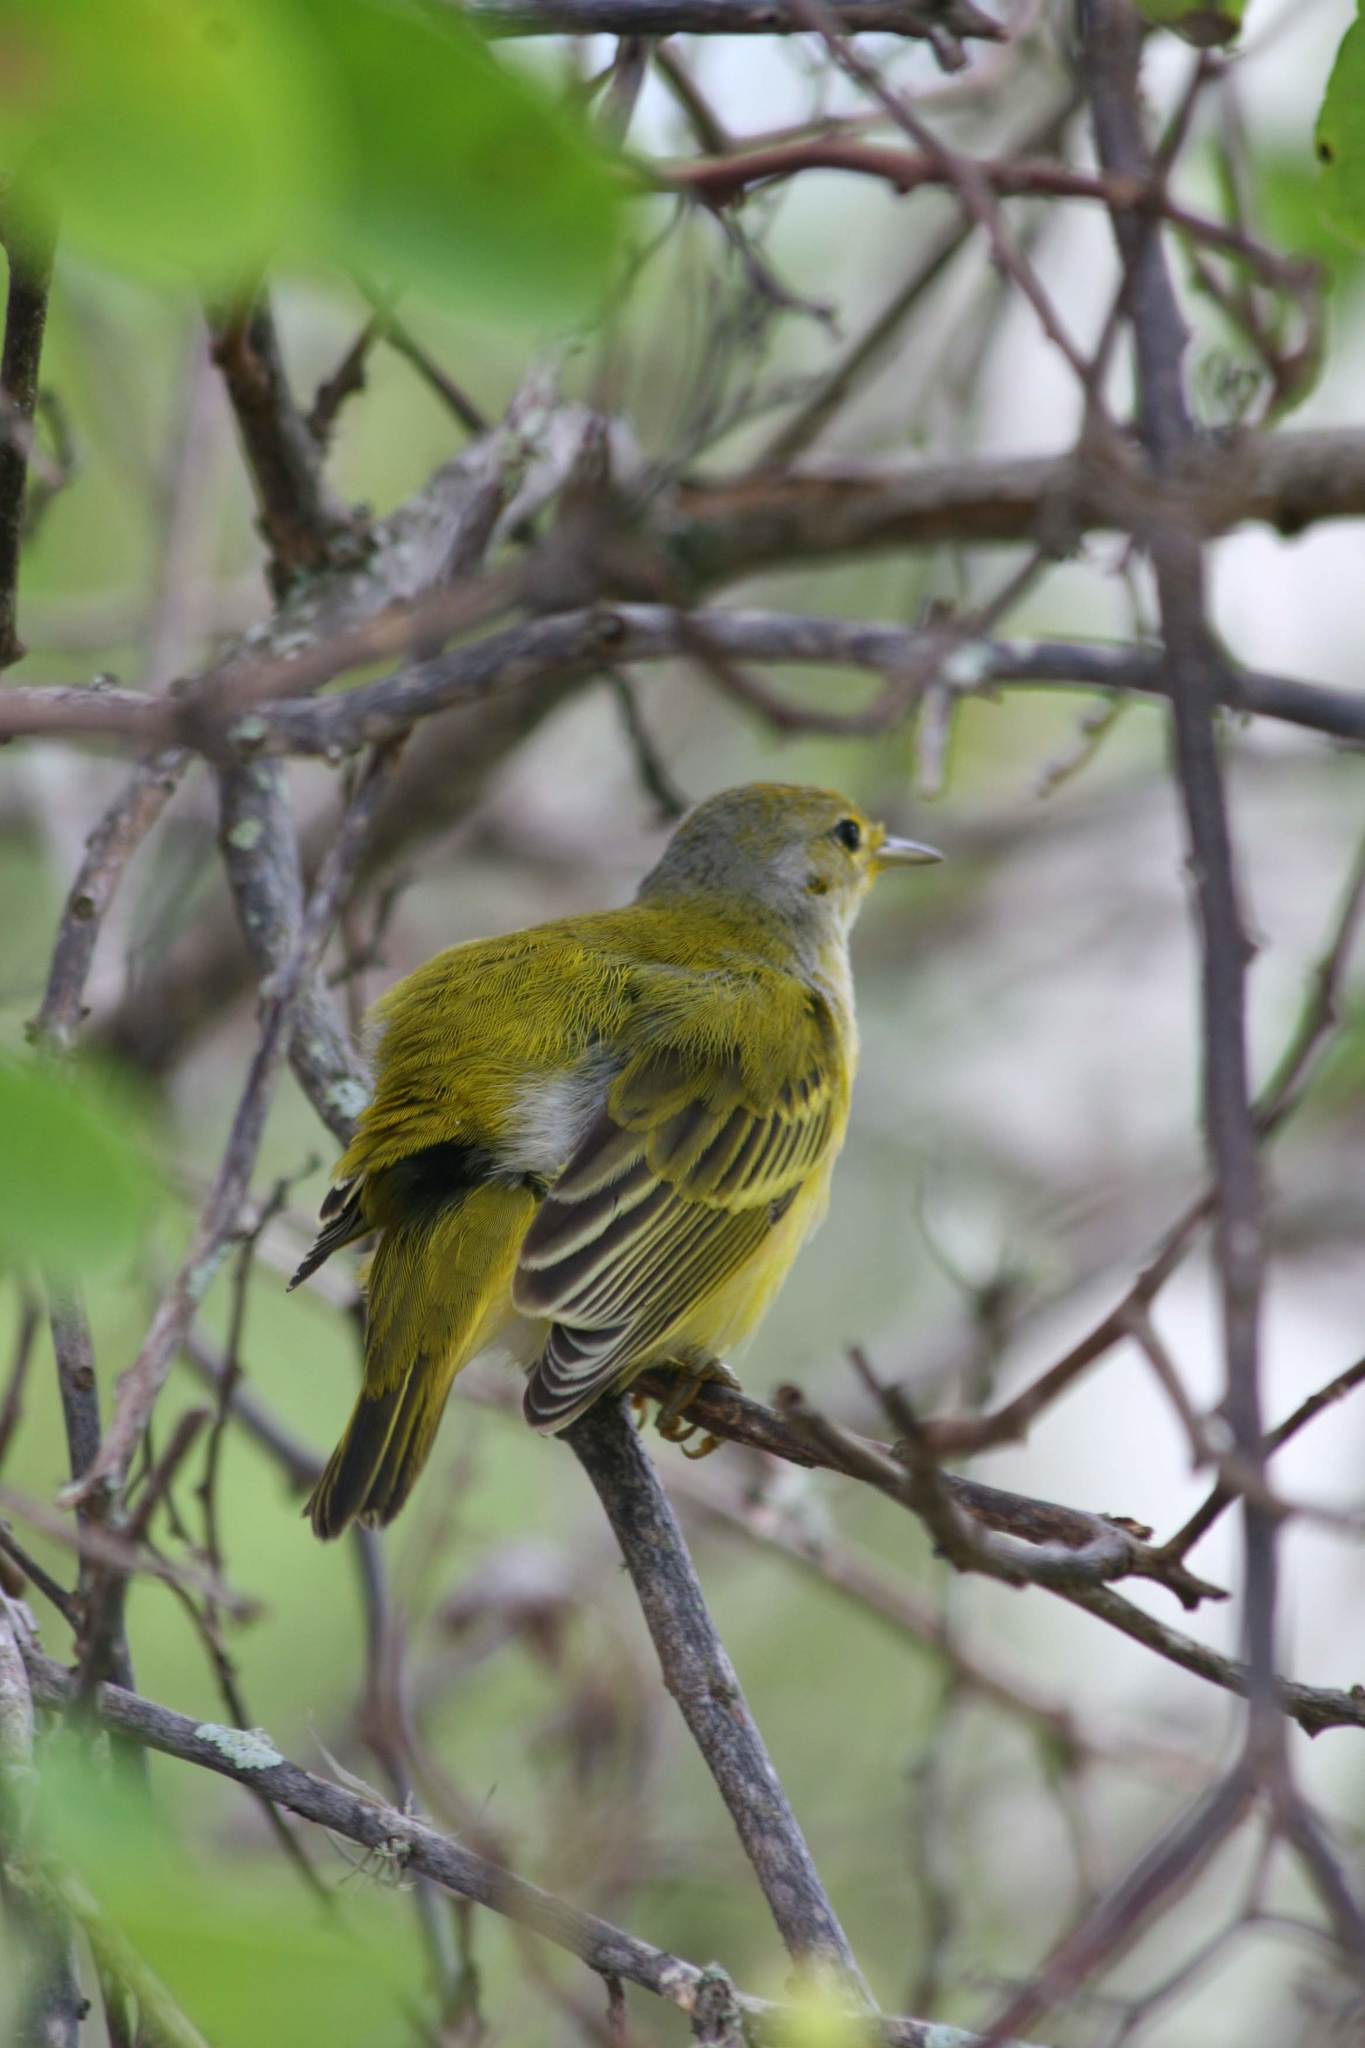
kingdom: Animalia
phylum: Chordata
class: Aves
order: Passeriformes
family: Parulidae
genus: Setophaga
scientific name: Setophaga petechia
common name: Yellow warbler
